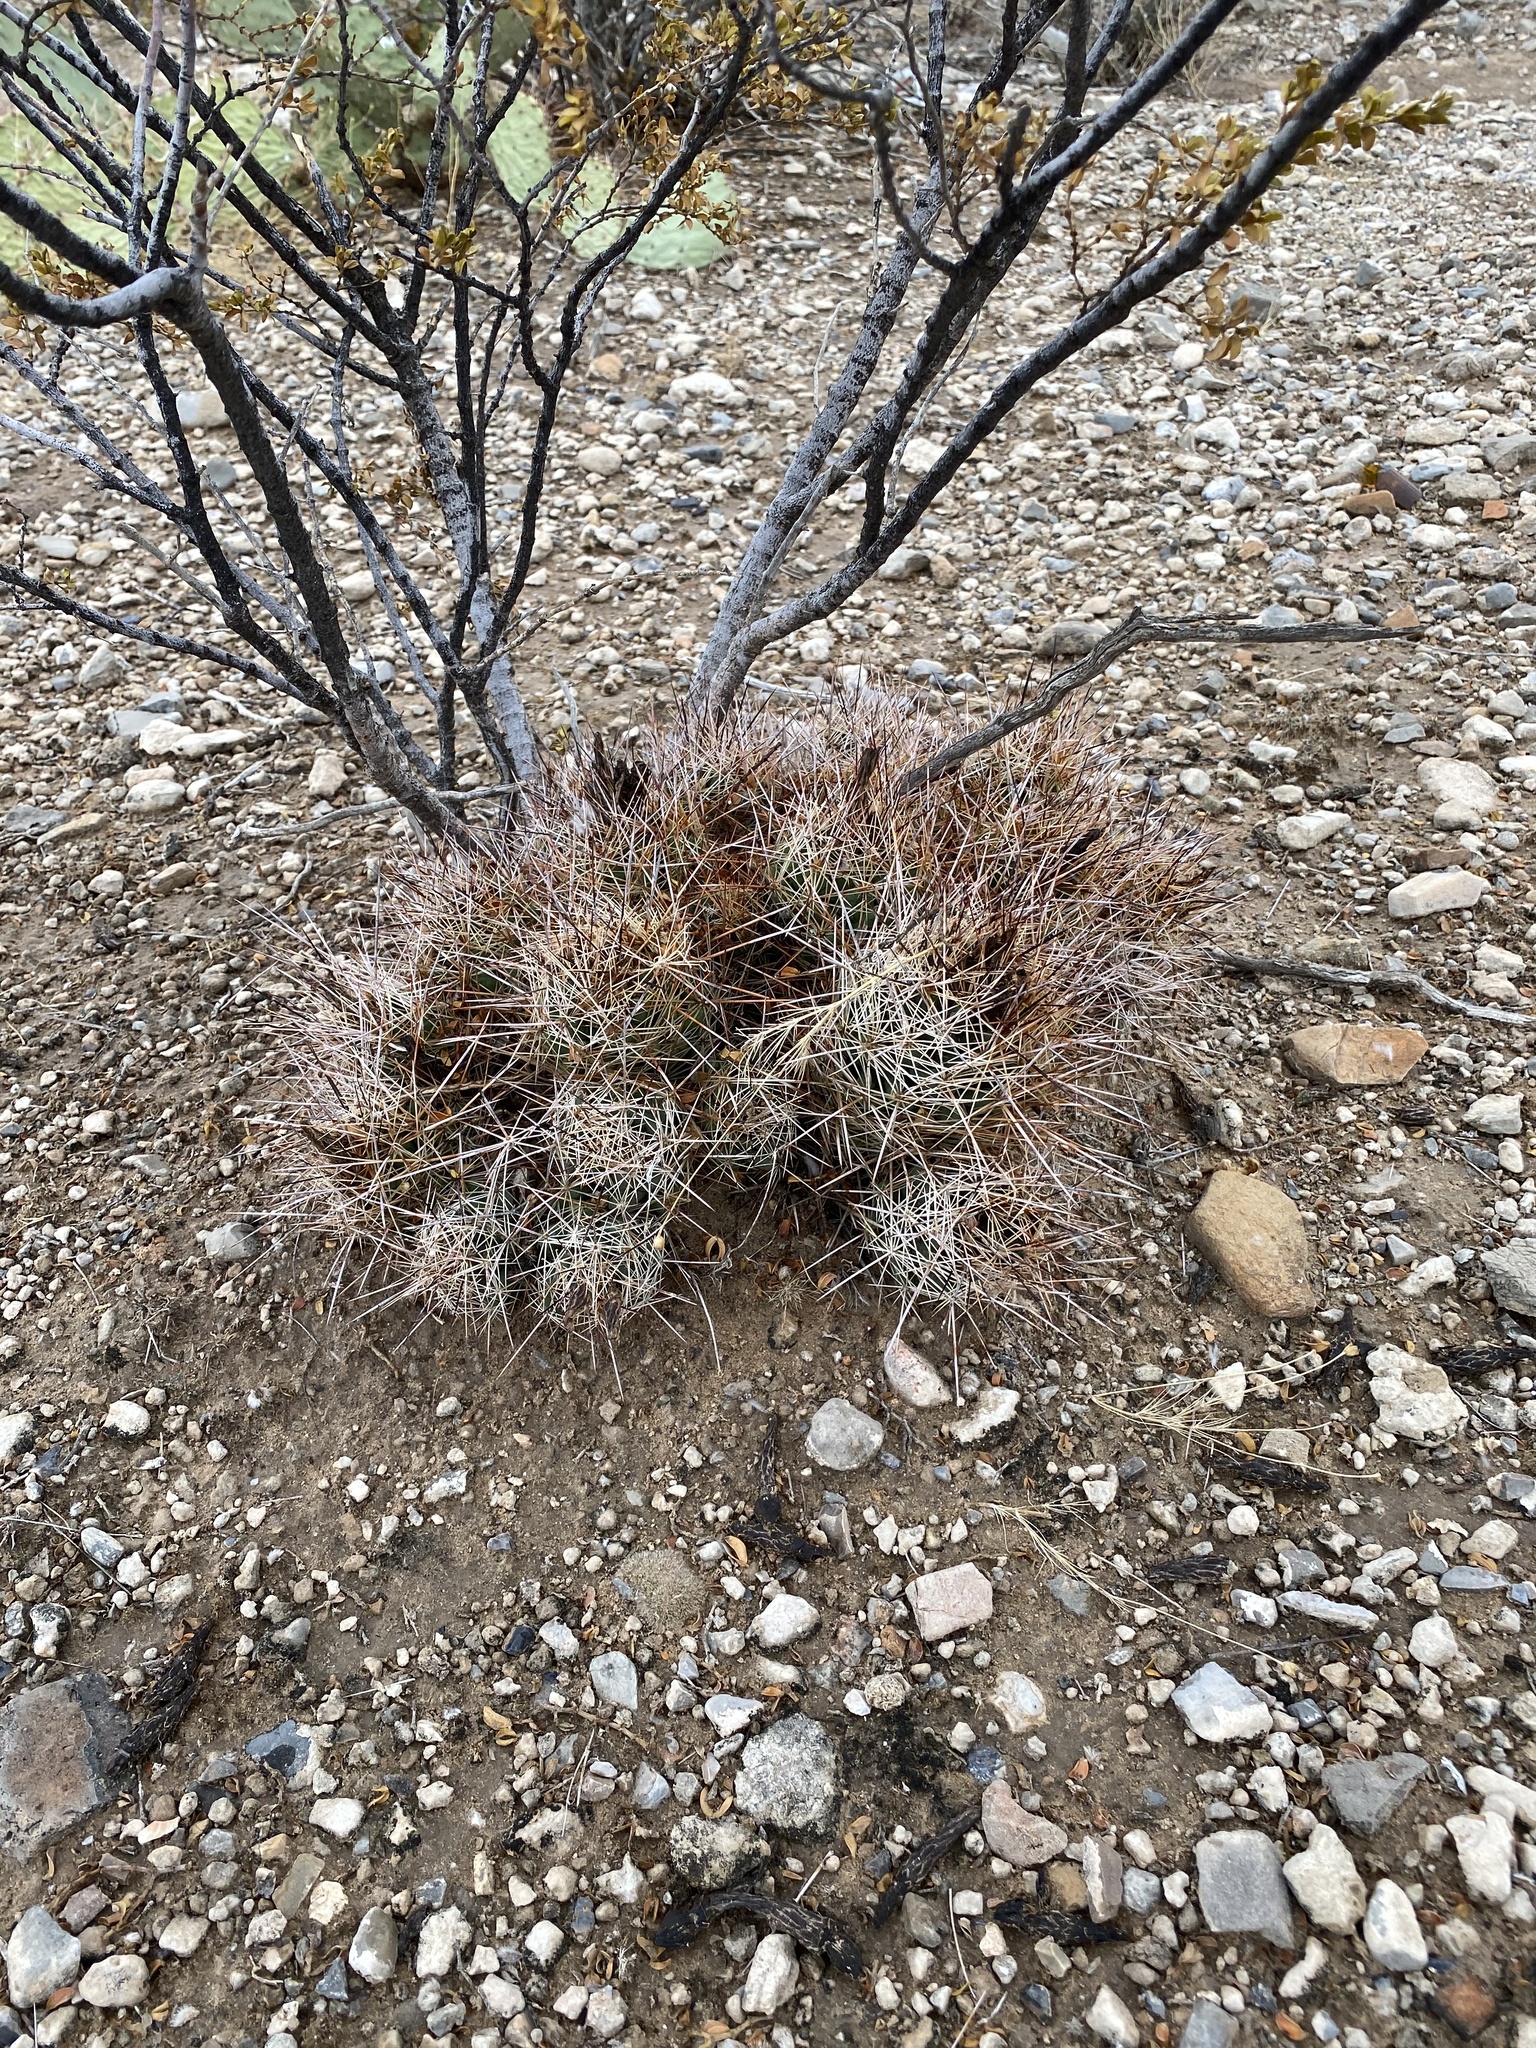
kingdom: Plantae
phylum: Tracheophyta
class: Magnoliopsida
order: Caryophyllales
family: Cactaceae
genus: Coryphantha
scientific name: Coryphantha macromeris
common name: Nipple beehive cactus
